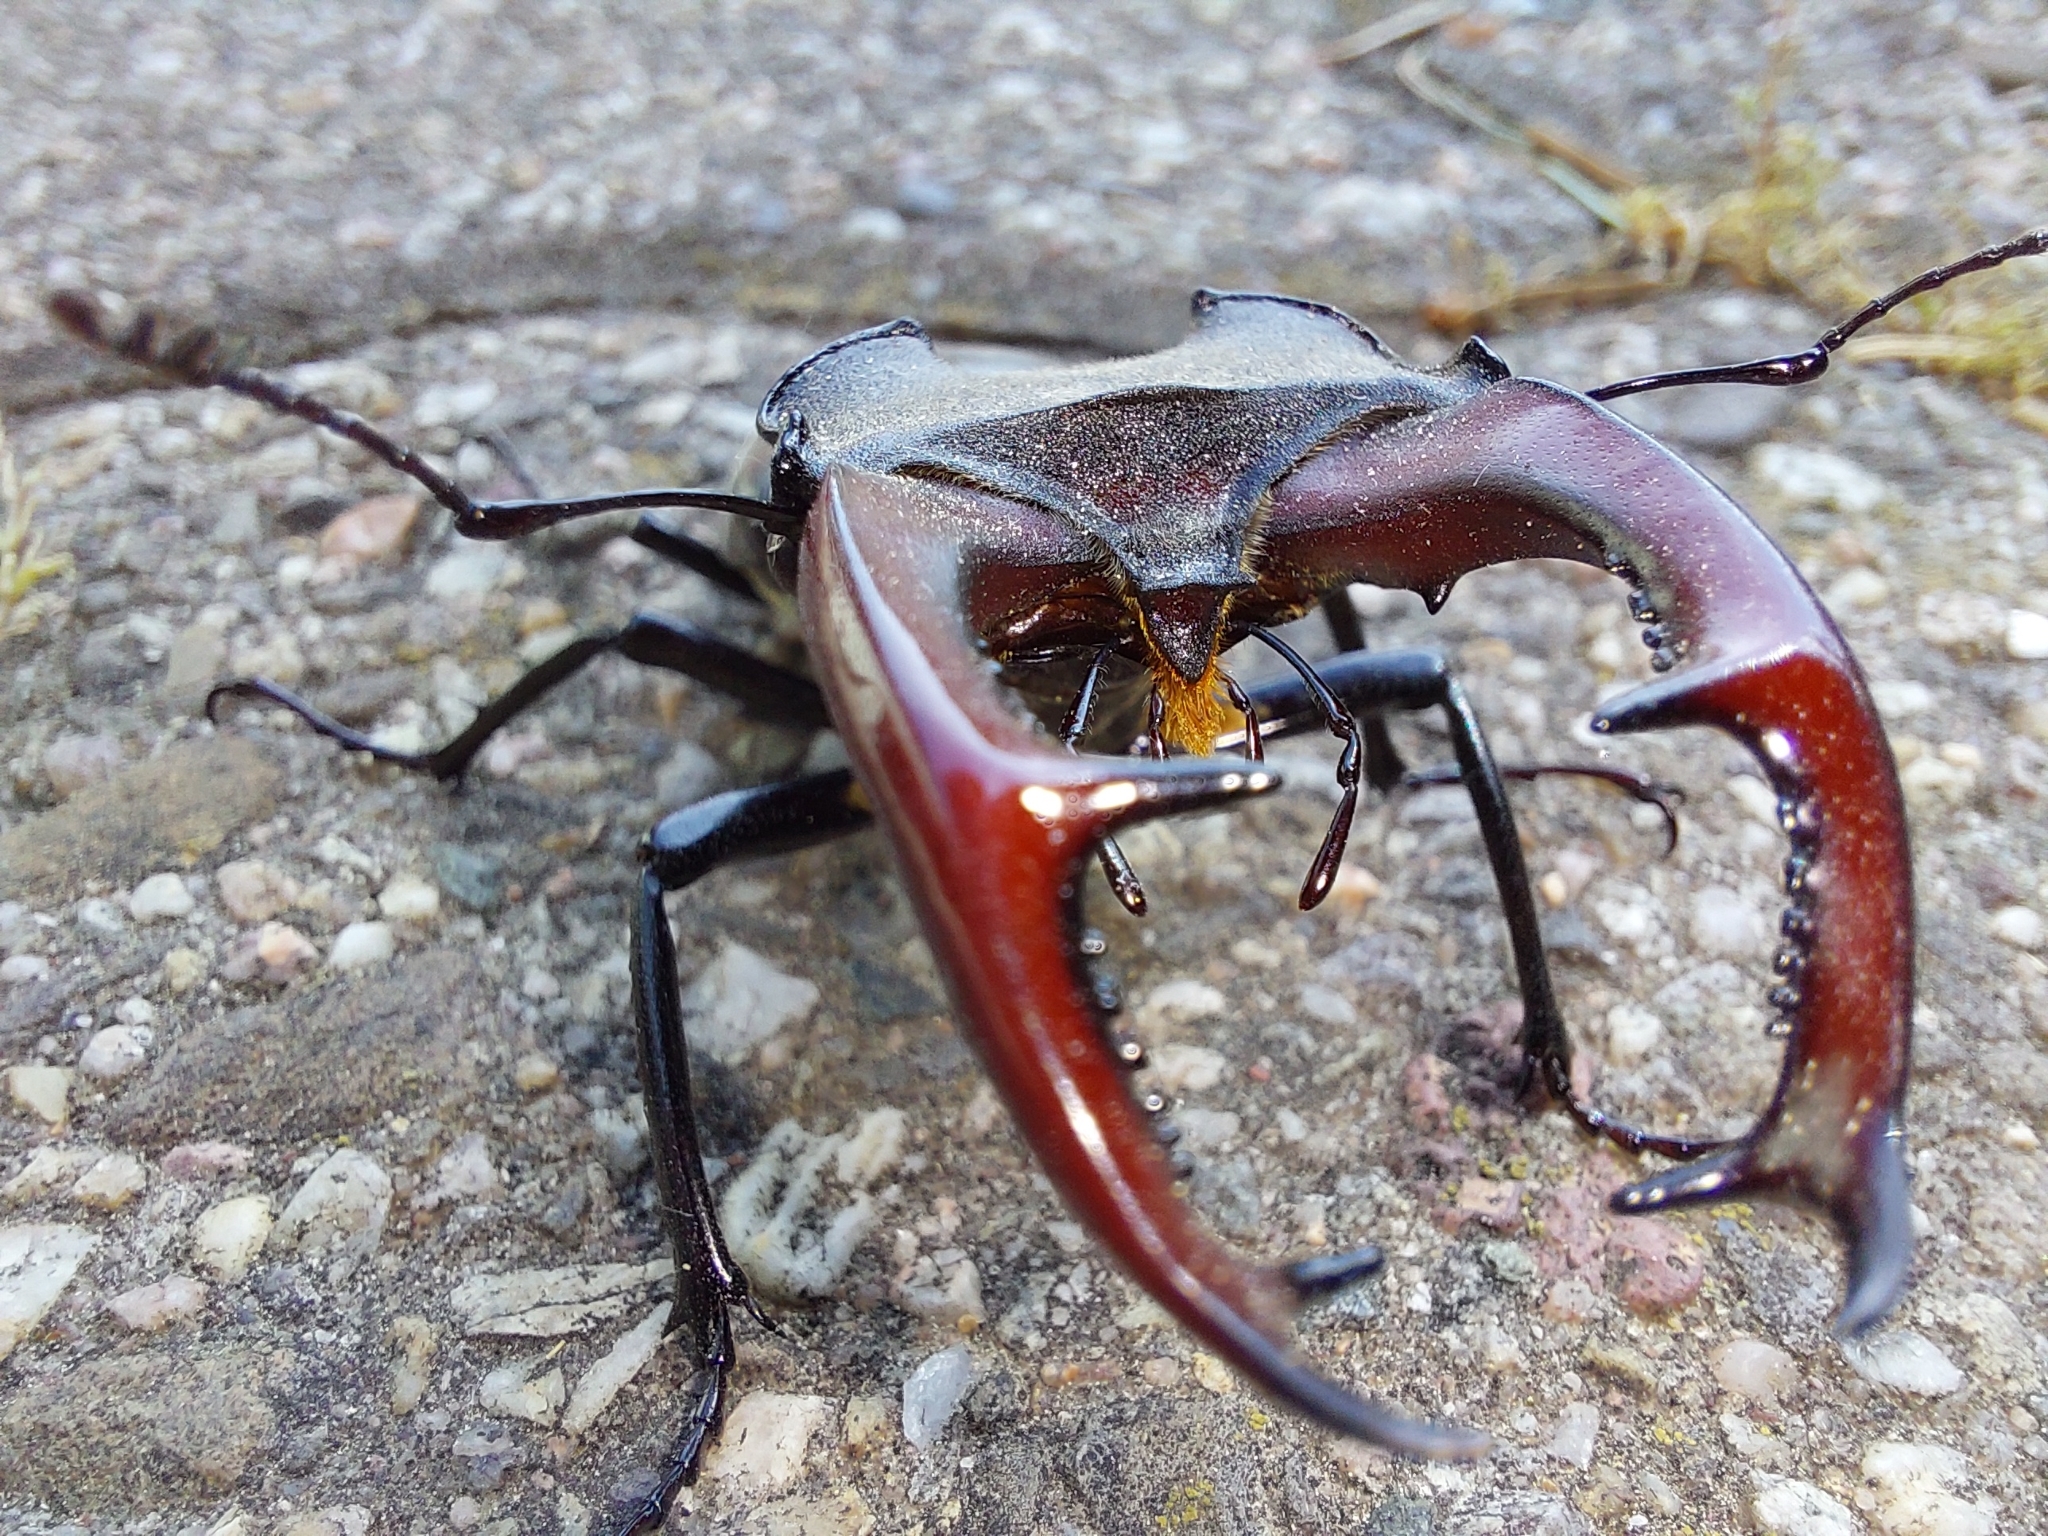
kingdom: Animalia
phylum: Arthropoda
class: Insecta
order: Coleoptera
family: Lucanidae
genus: Lucanus
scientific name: Lucanus cervus
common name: Stag beetle
